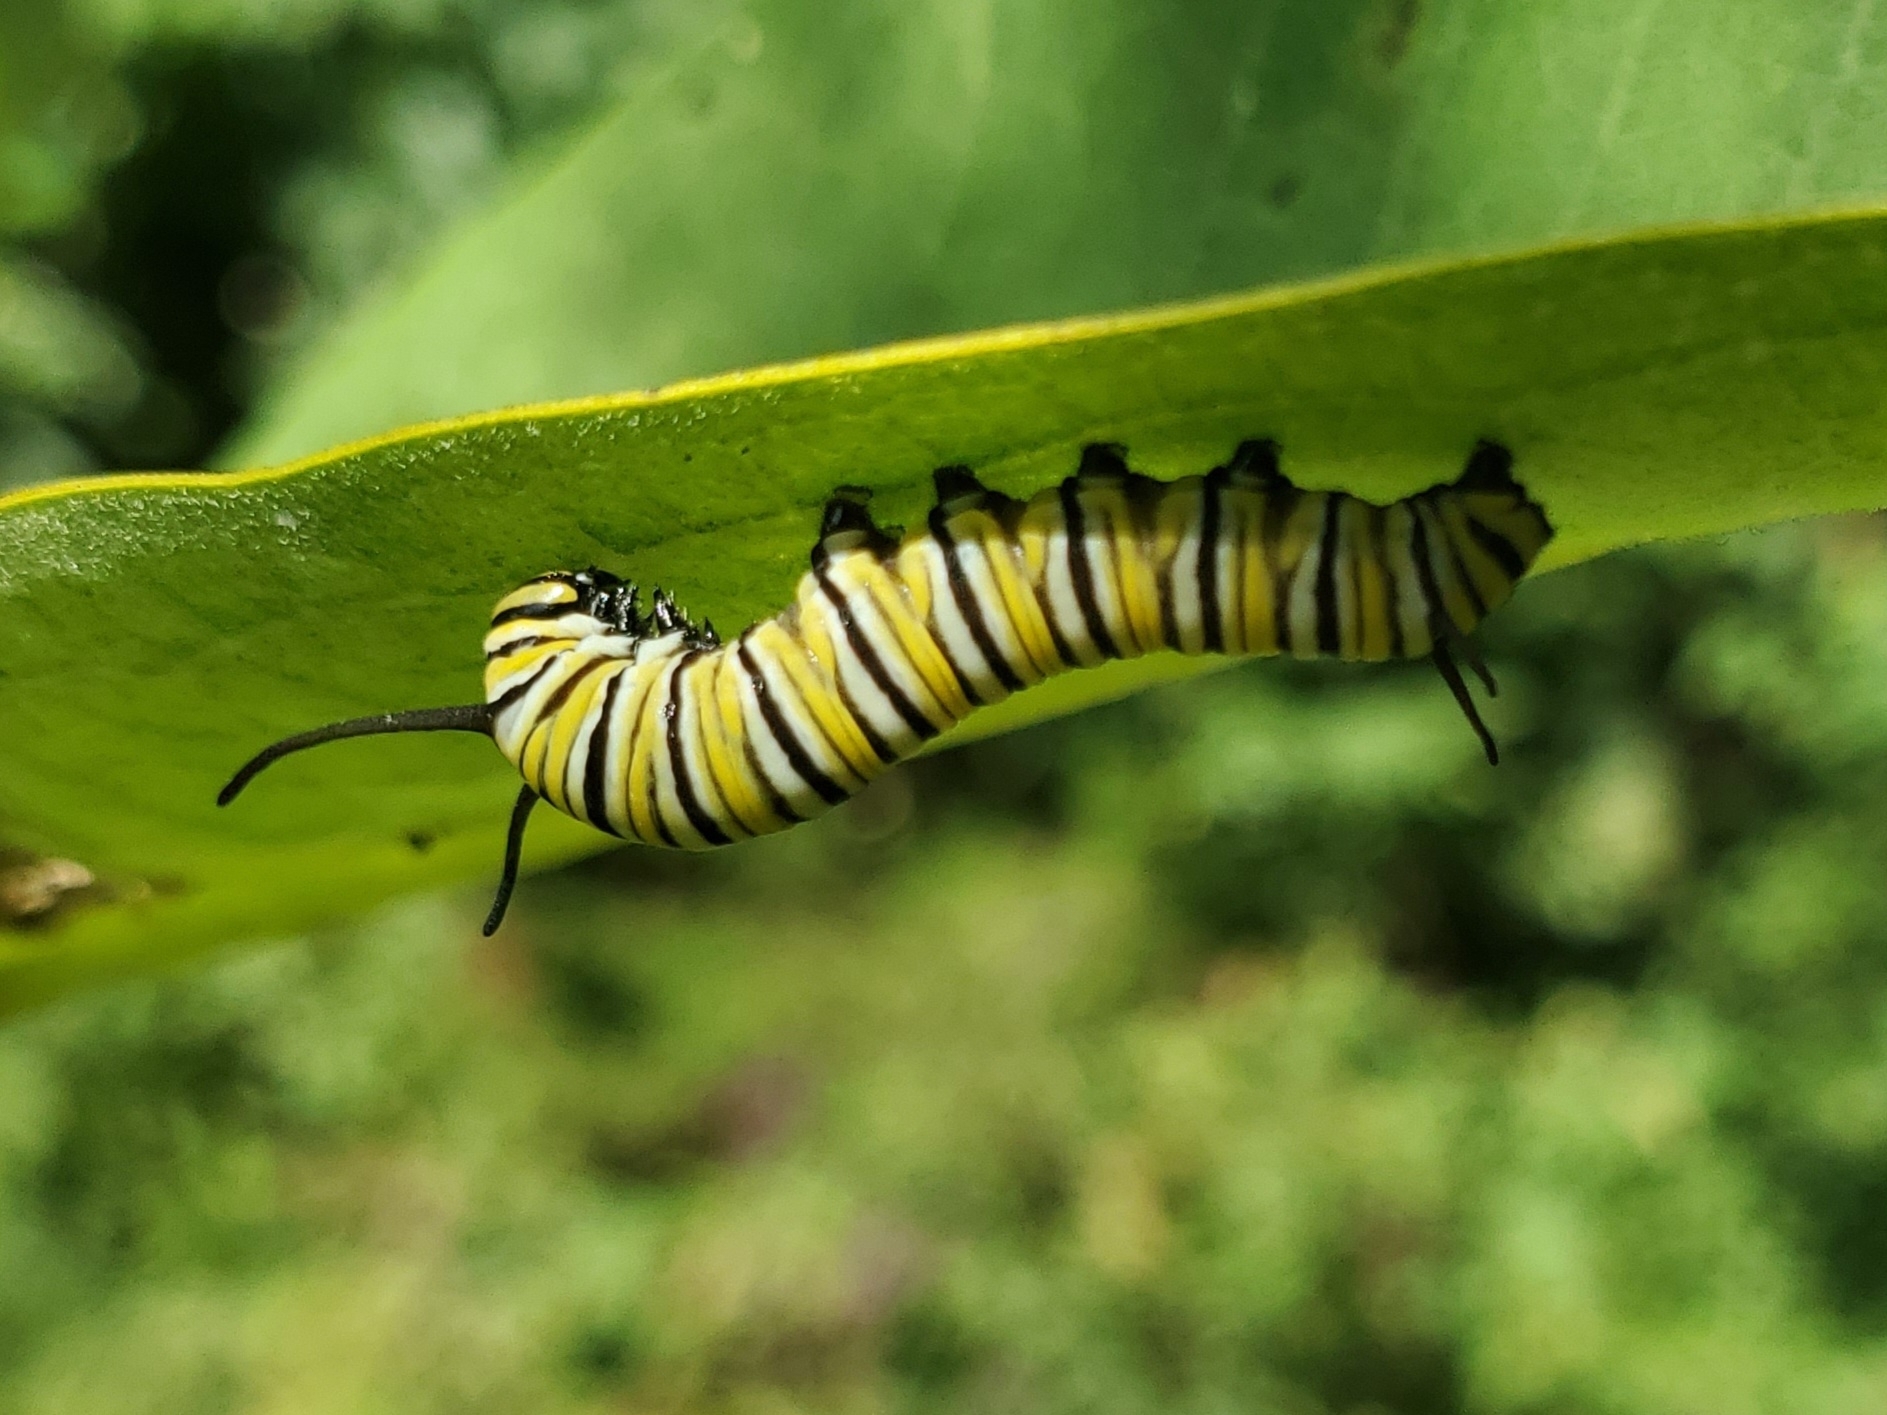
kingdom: Animalia
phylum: Arthropoda
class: Insecta
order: Lepidoptera
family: Nymphalidae
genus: Danaus
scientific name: Danaus plexippus
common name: Monarch
